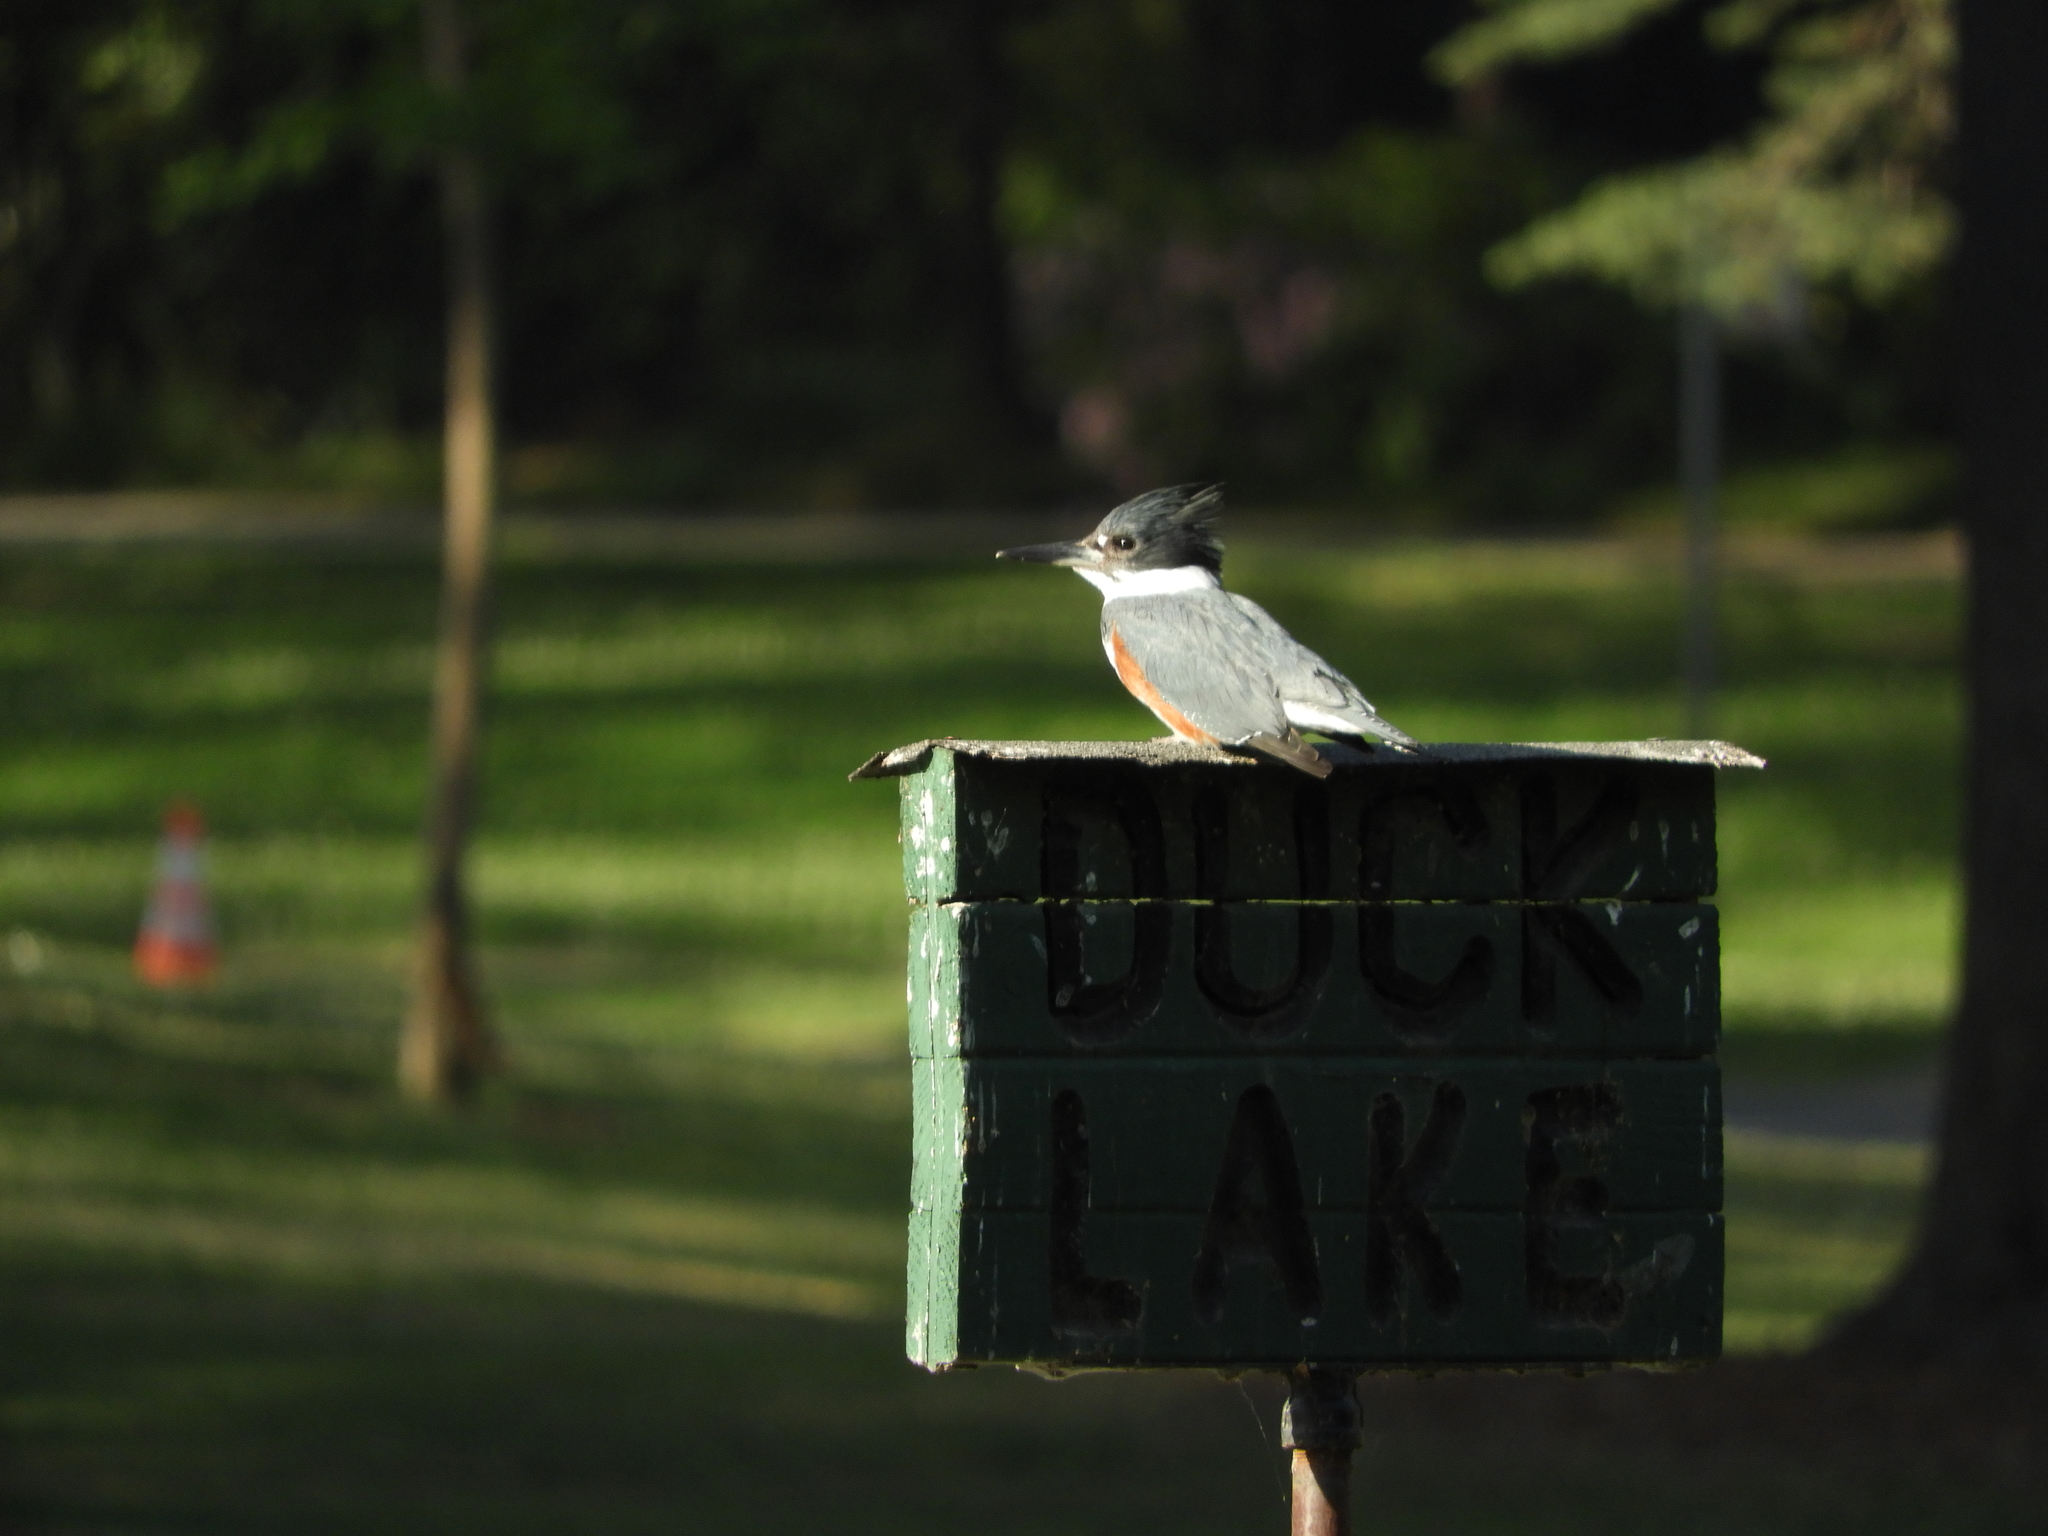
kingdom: Animalia
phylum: Chordata
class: Aves
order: Coraciiformes
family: Alcedinidae
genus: Megaceryle
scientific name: Megaceryle alcyon
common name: Belted kingfisher
